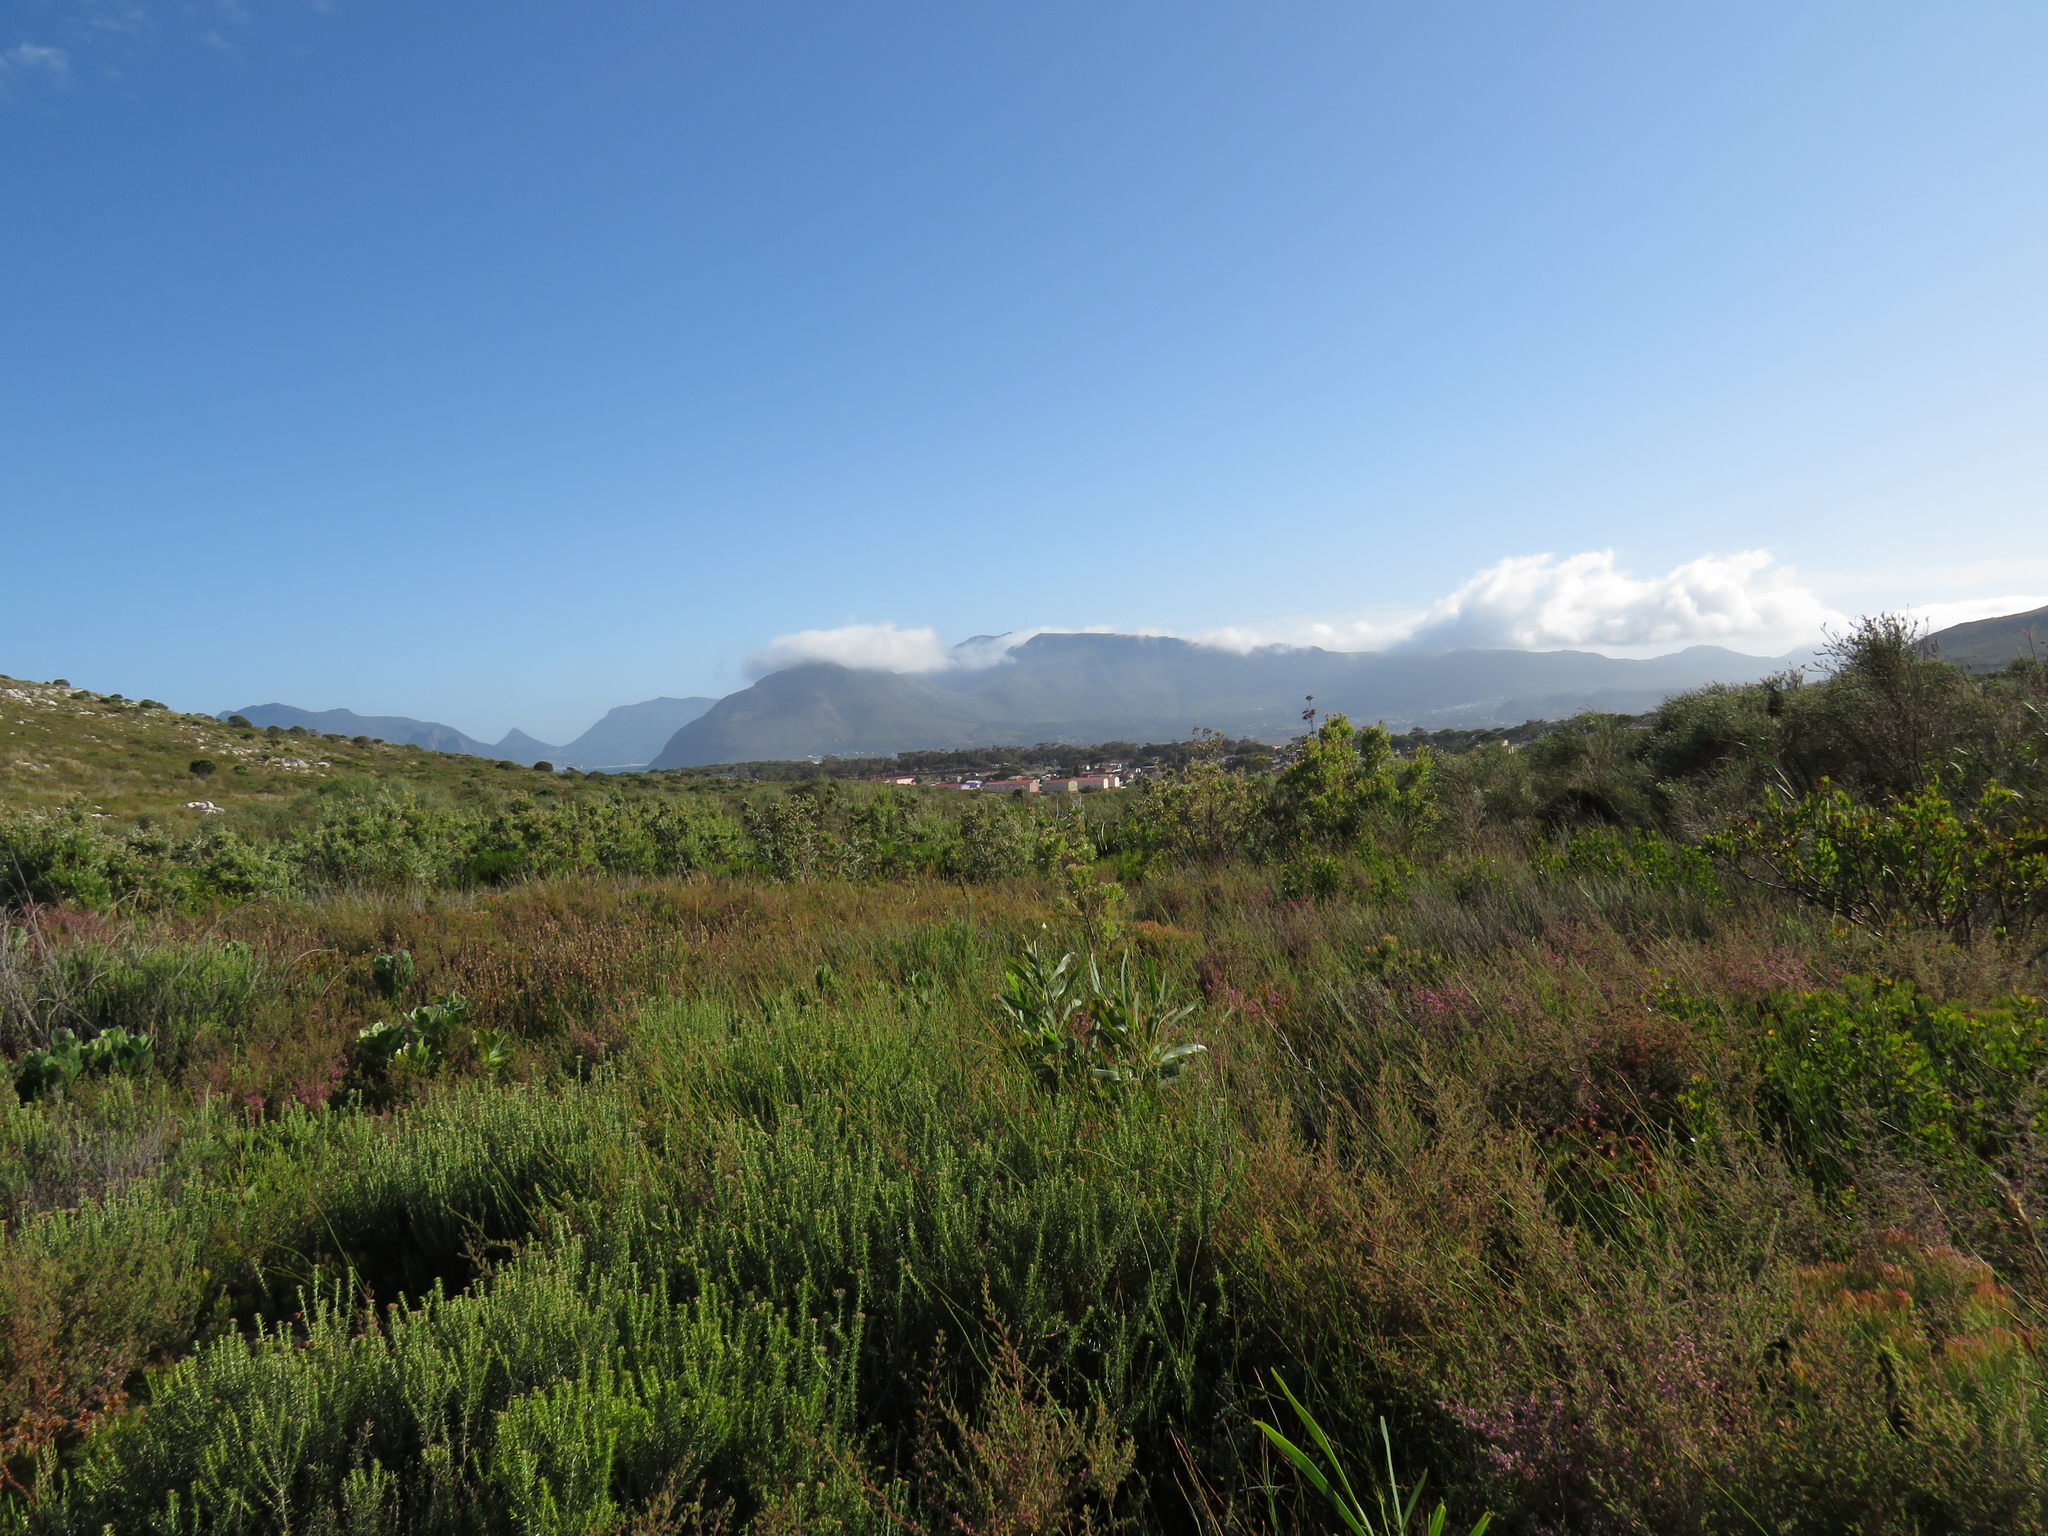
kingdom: Plantae
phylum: Tracheophyta
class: Magnoliopsida
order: Fabales
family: Fabaceae
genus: Acacia
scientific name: Acacia saligna
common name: Orange wattle
